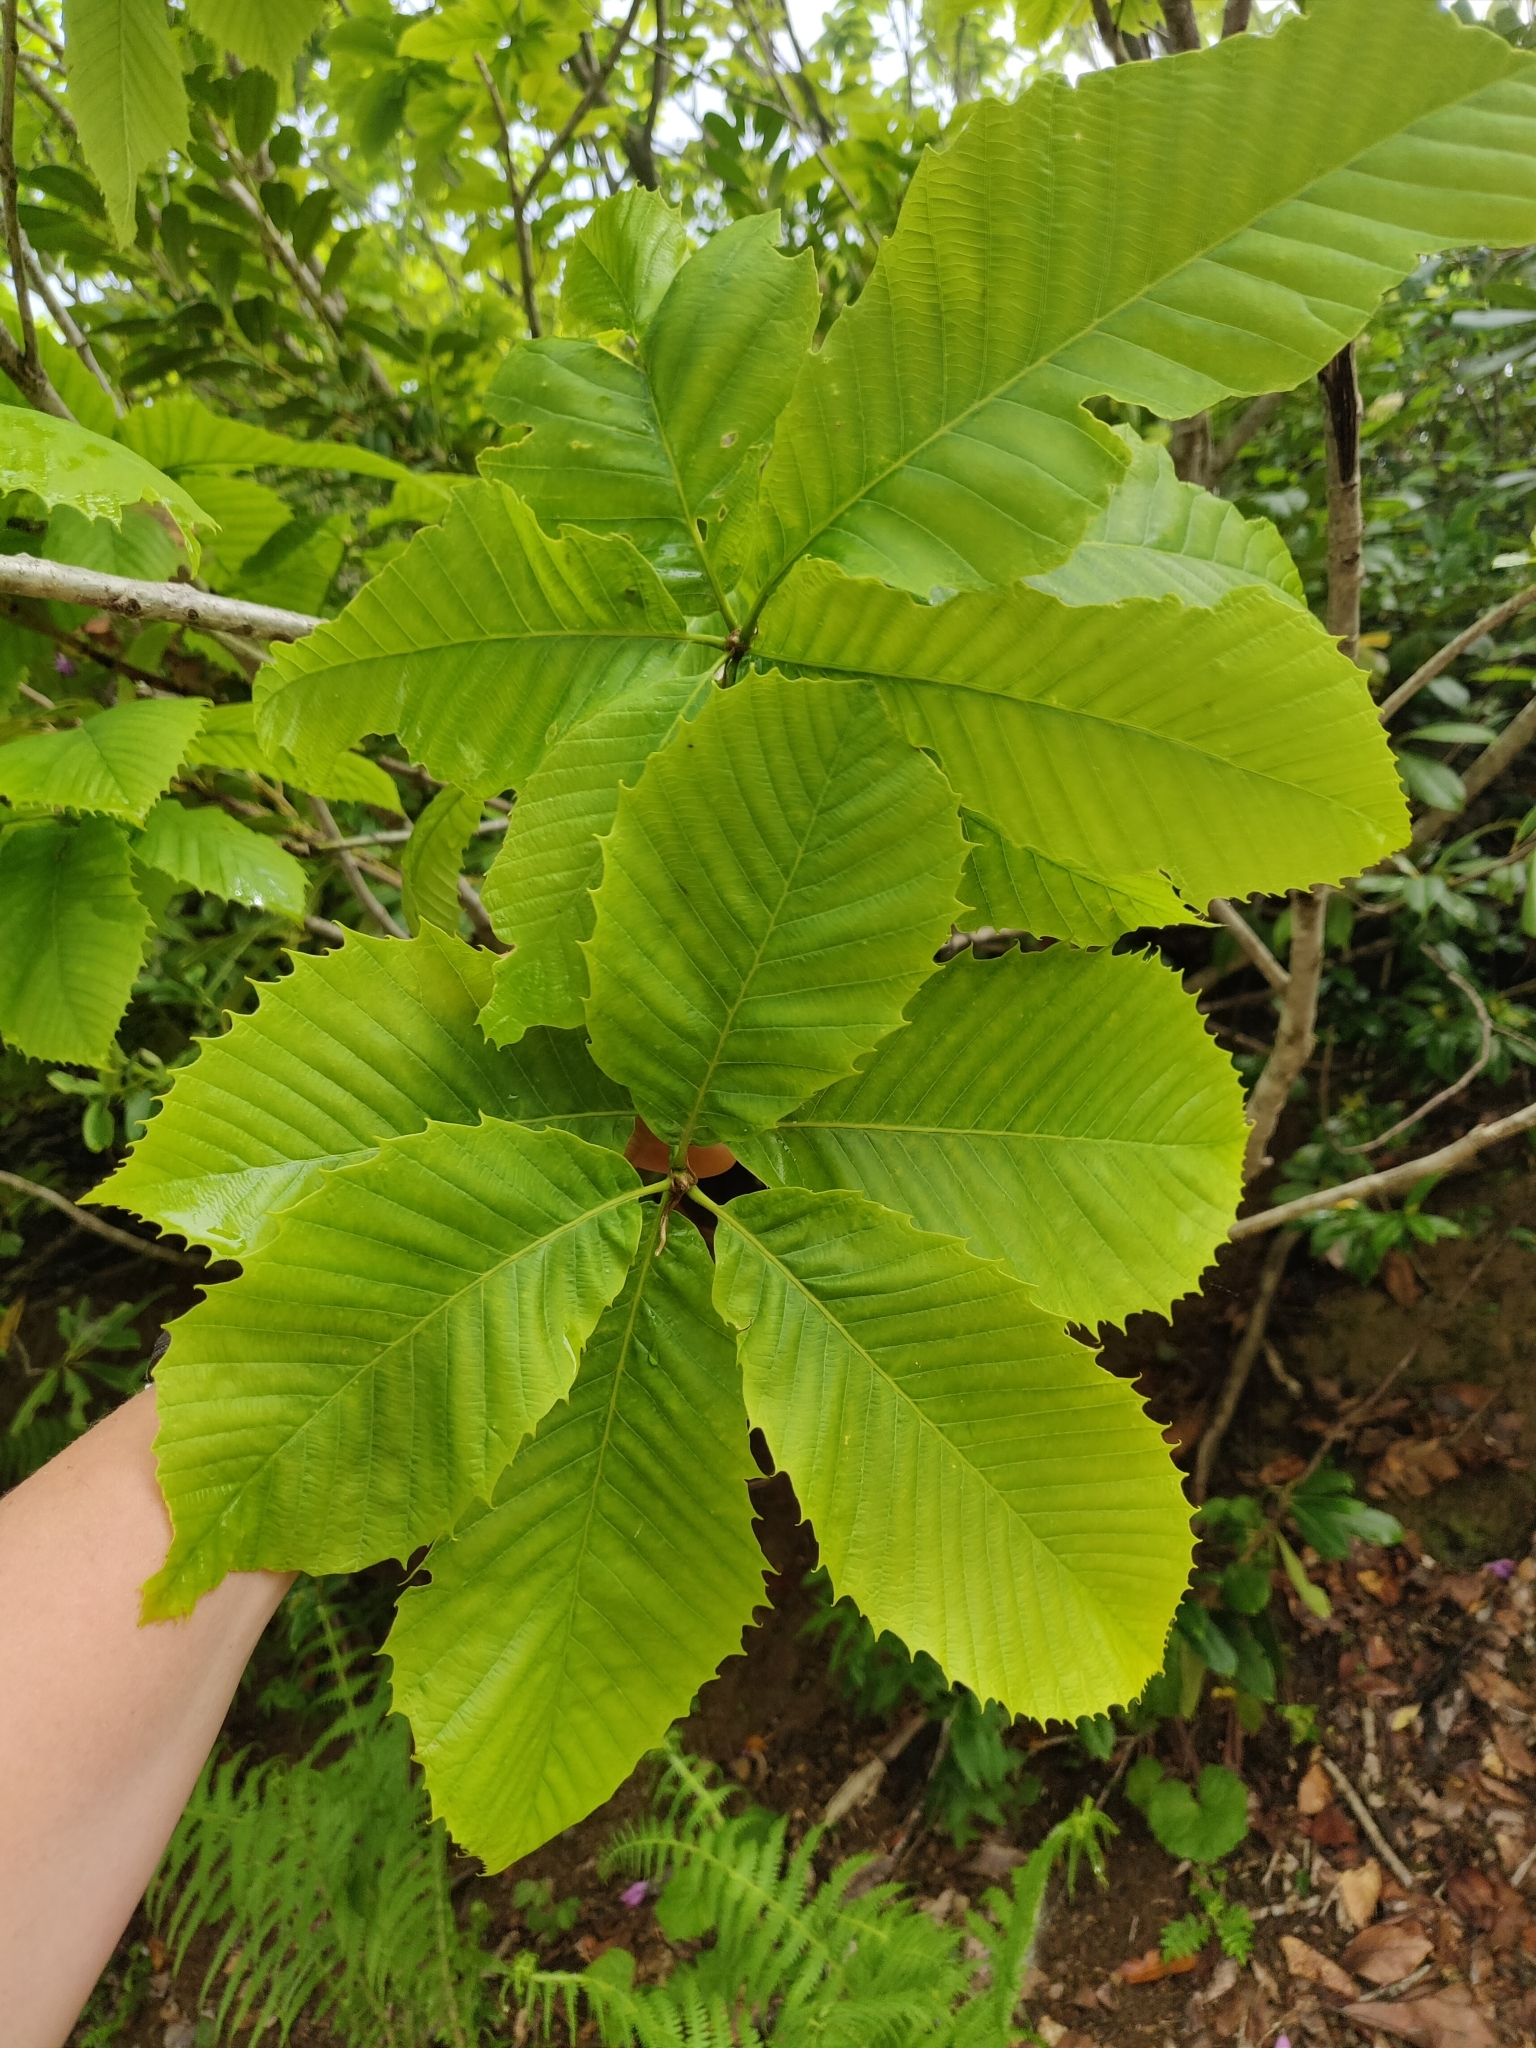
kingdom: Plantae
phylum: Tracheophyta
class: Magnoliopsida
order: Fagales
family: Fagaceae
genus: Castanea
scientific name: Castanea sativa
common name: Sweet chestnut
